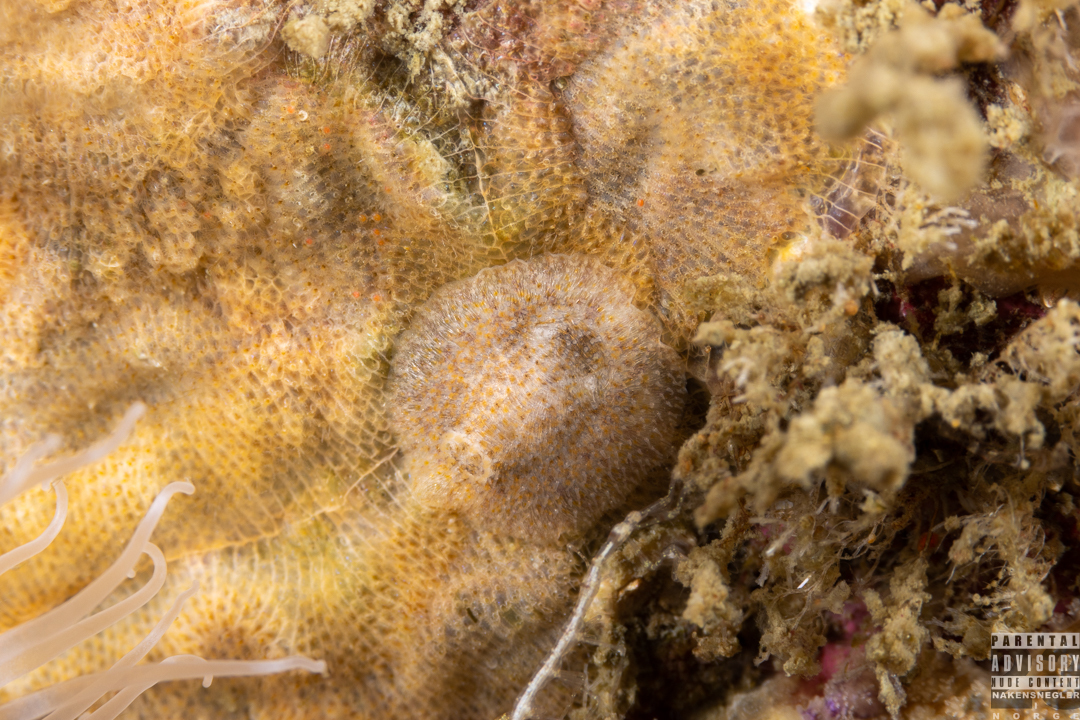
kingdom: Animalia
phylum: Mollusca
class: Gastropoda
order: Nudibranchia
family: Onchidorididae
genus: Idaliadoris
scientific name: Idaliadoris depressa
